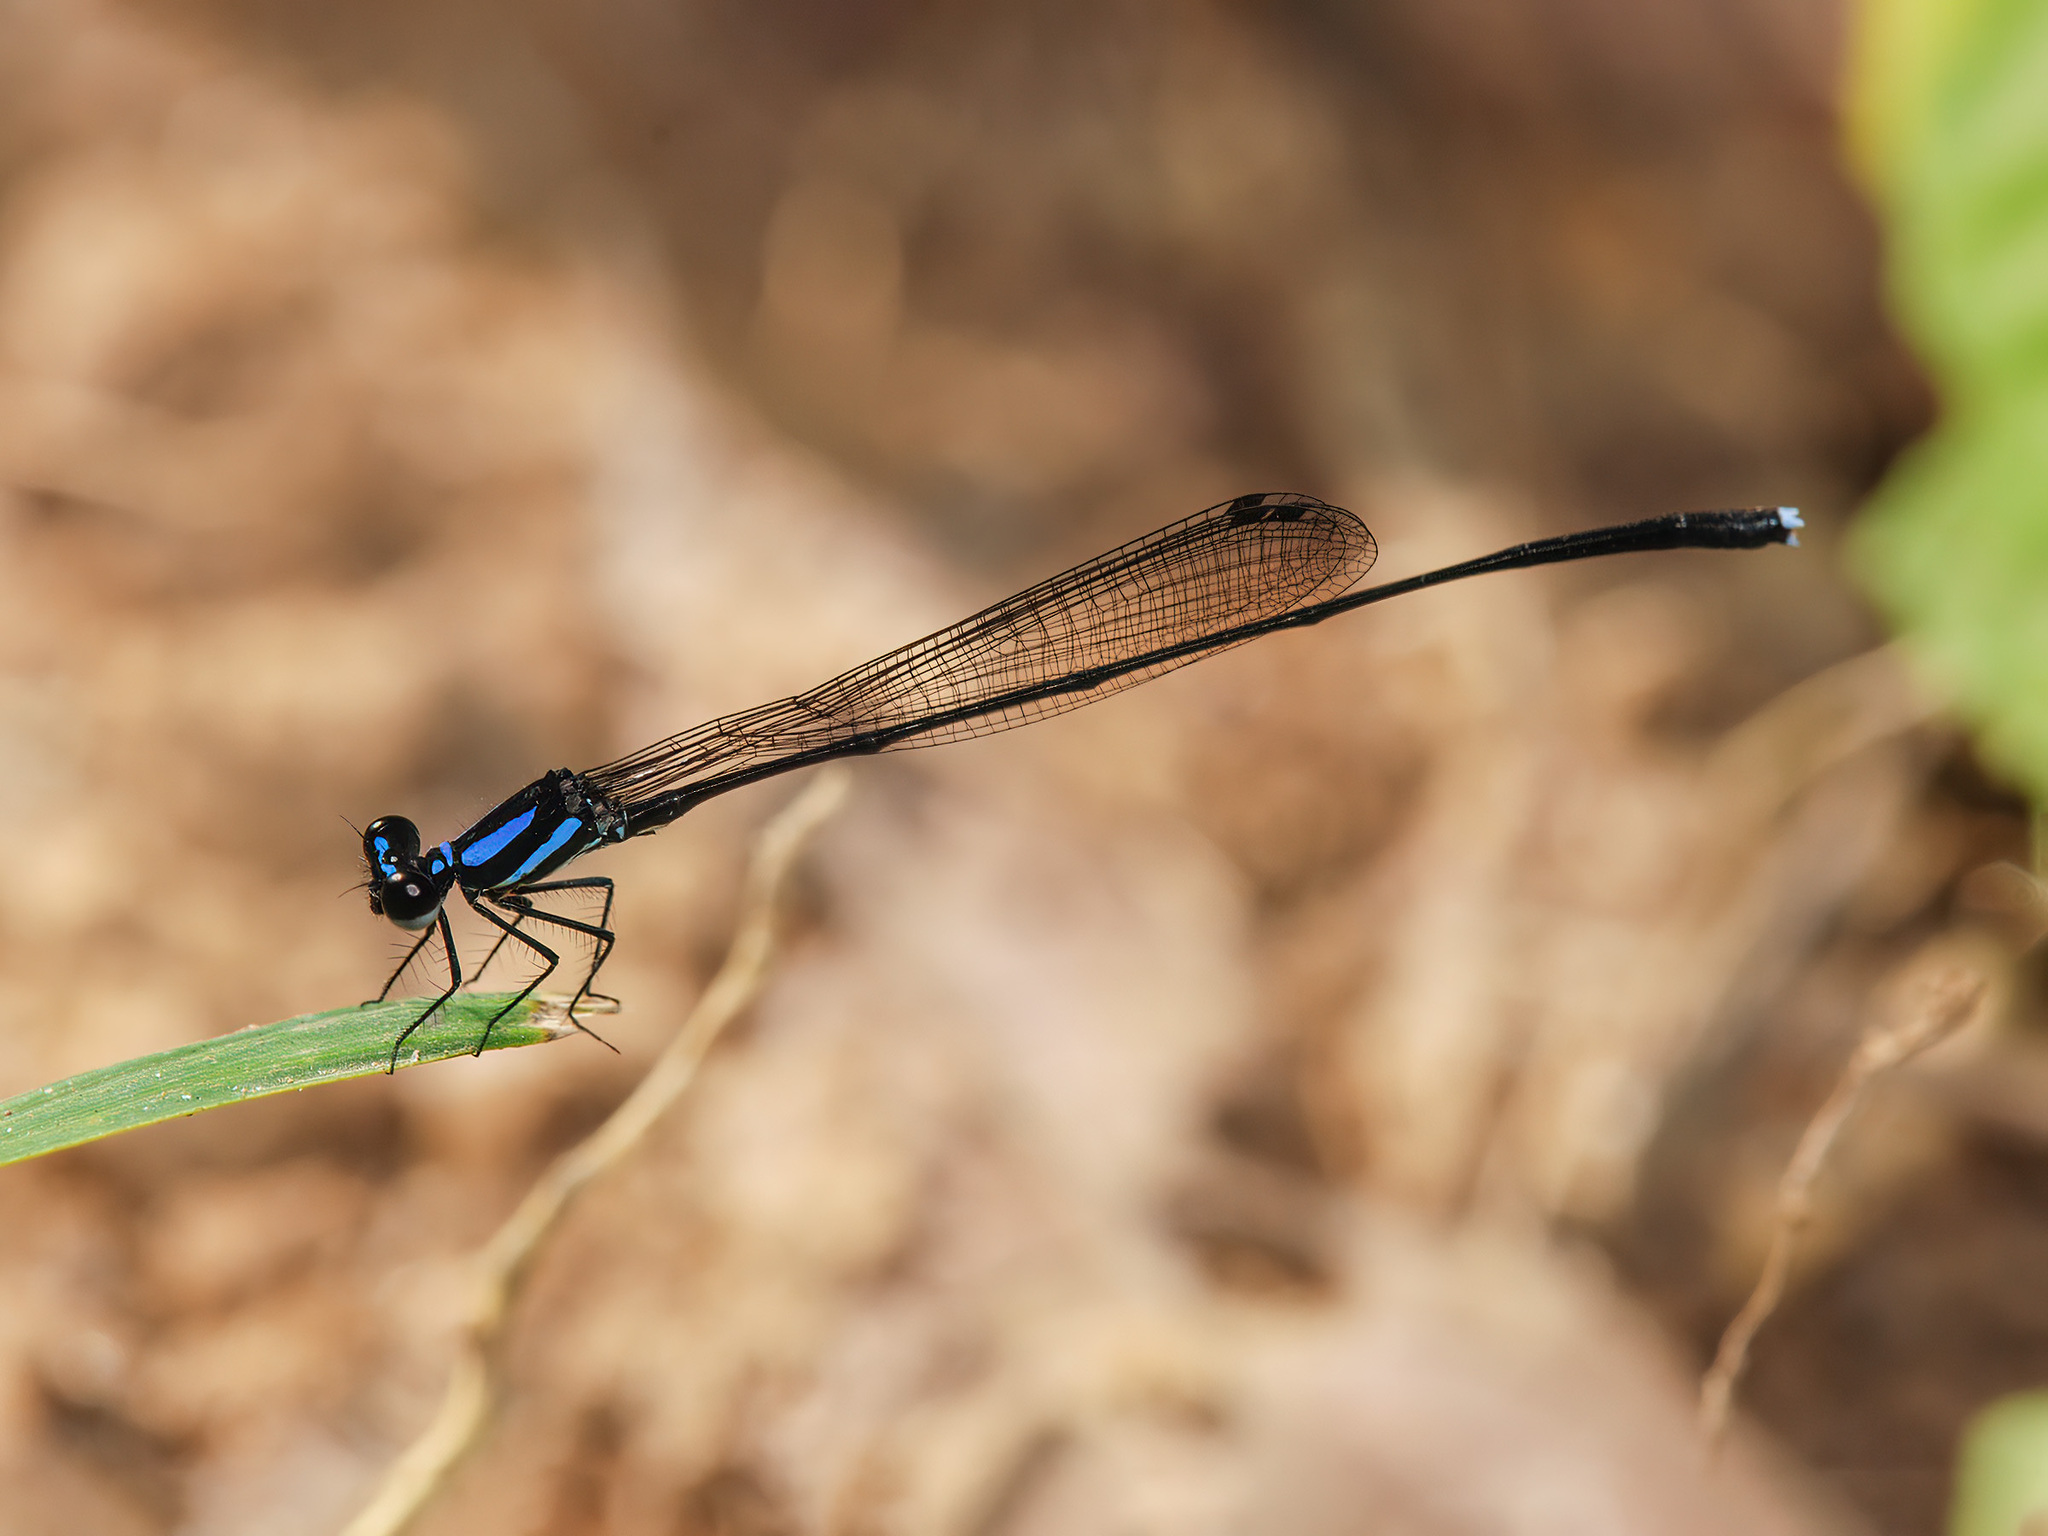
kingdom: Animalia
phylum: Arthropoda
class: Insecta
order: Odonata
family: Platycnemididae
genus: Prodasineura
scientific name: Prodasineura collaris
